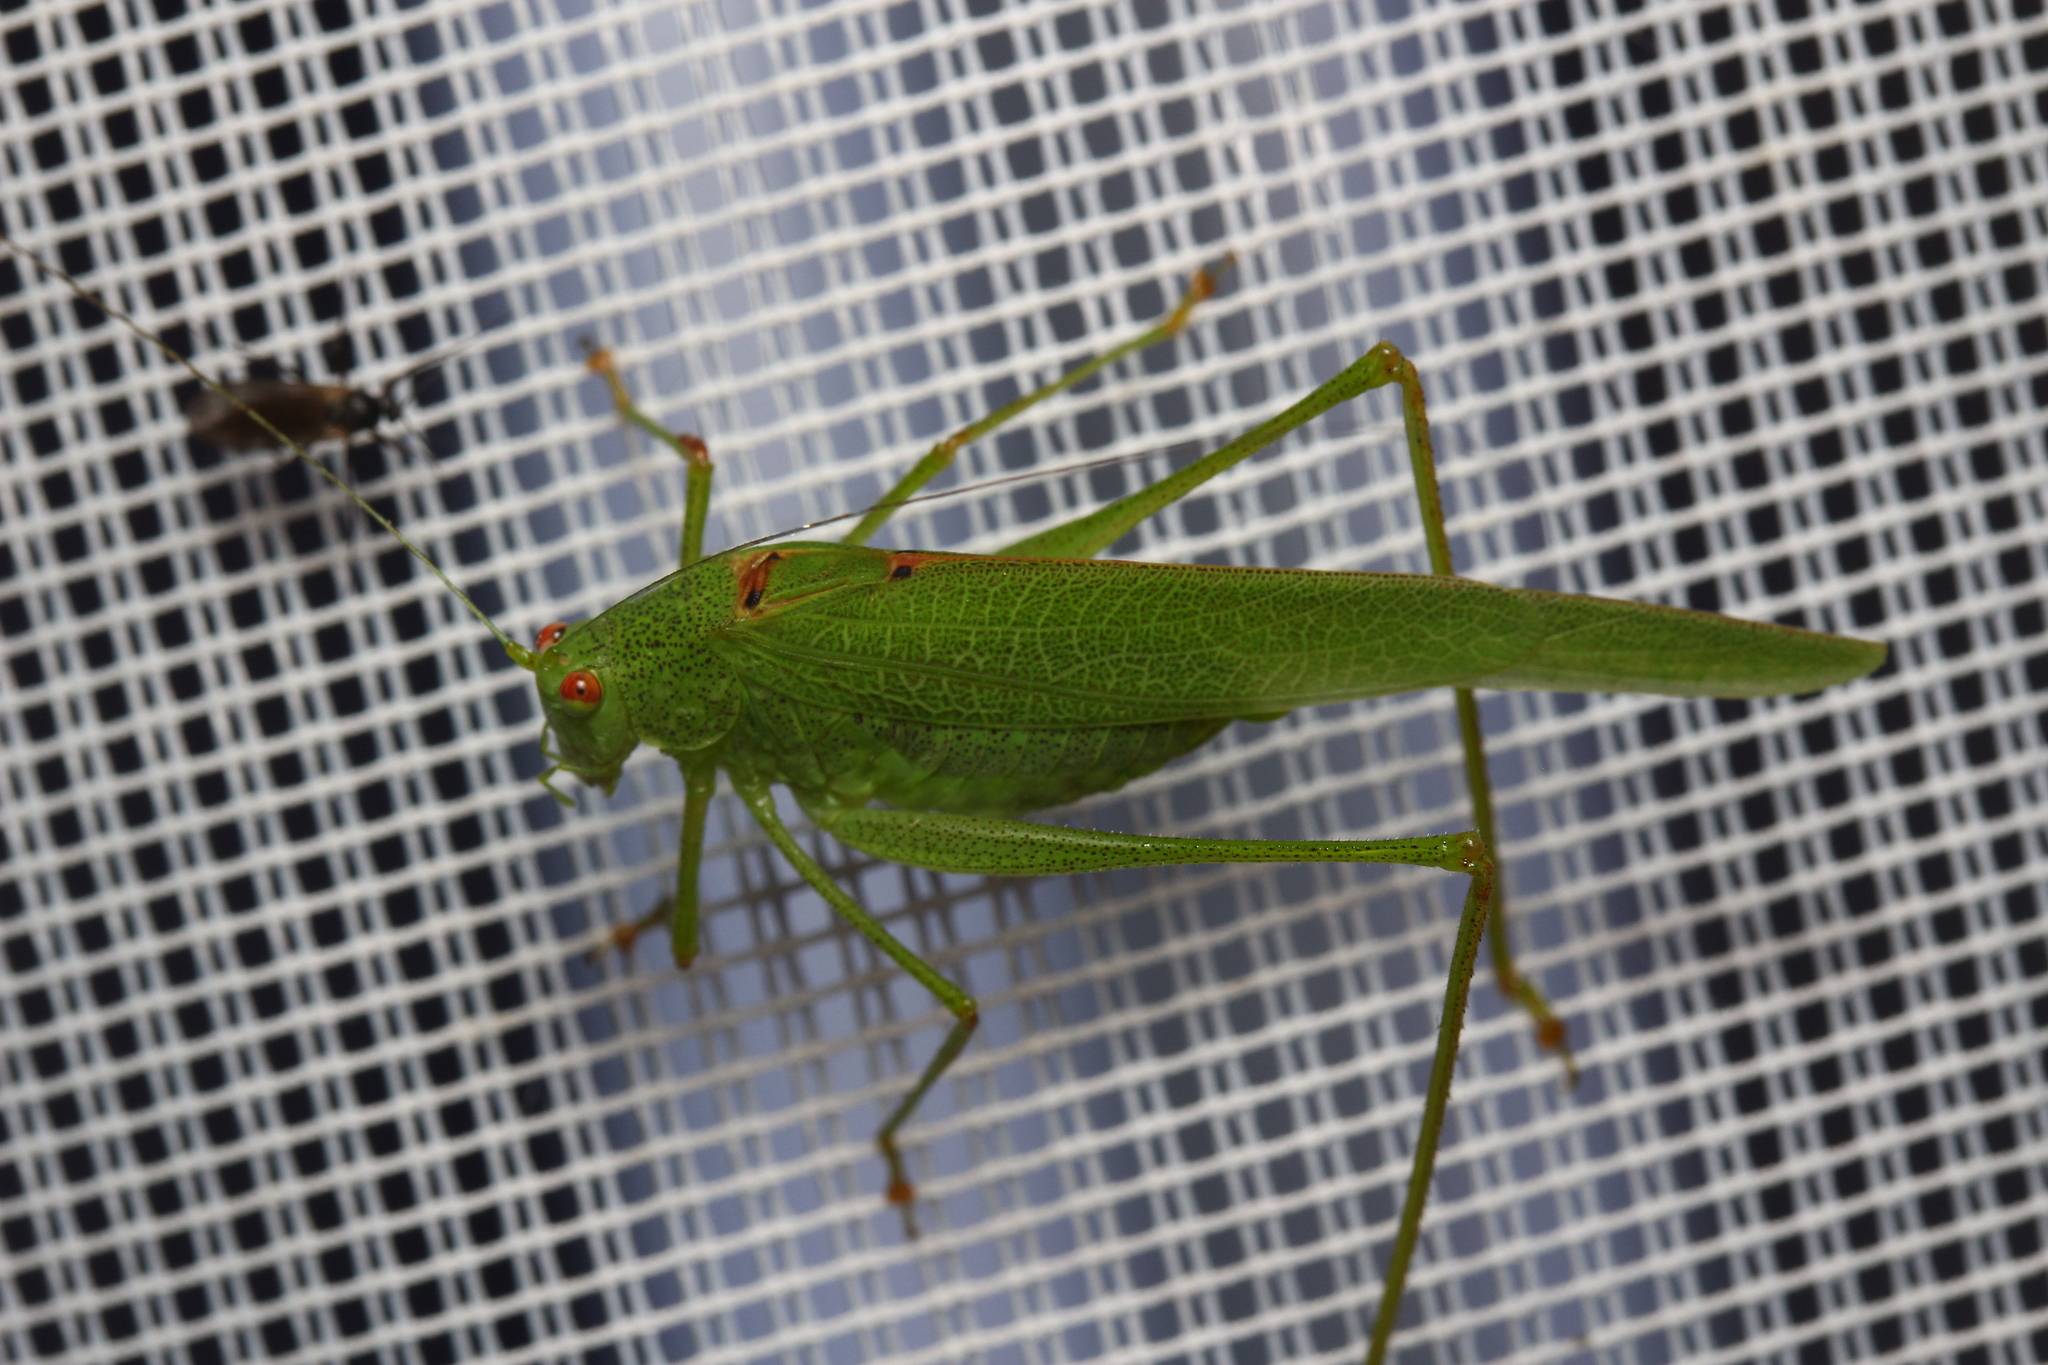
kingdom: Animalia
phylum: Arthropoda
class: Insecta
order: Orthoptera
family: Tettigoniidae
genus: Phaneroptera
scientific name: Phaneroptera nana
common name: Southern sickle bush-cricket
